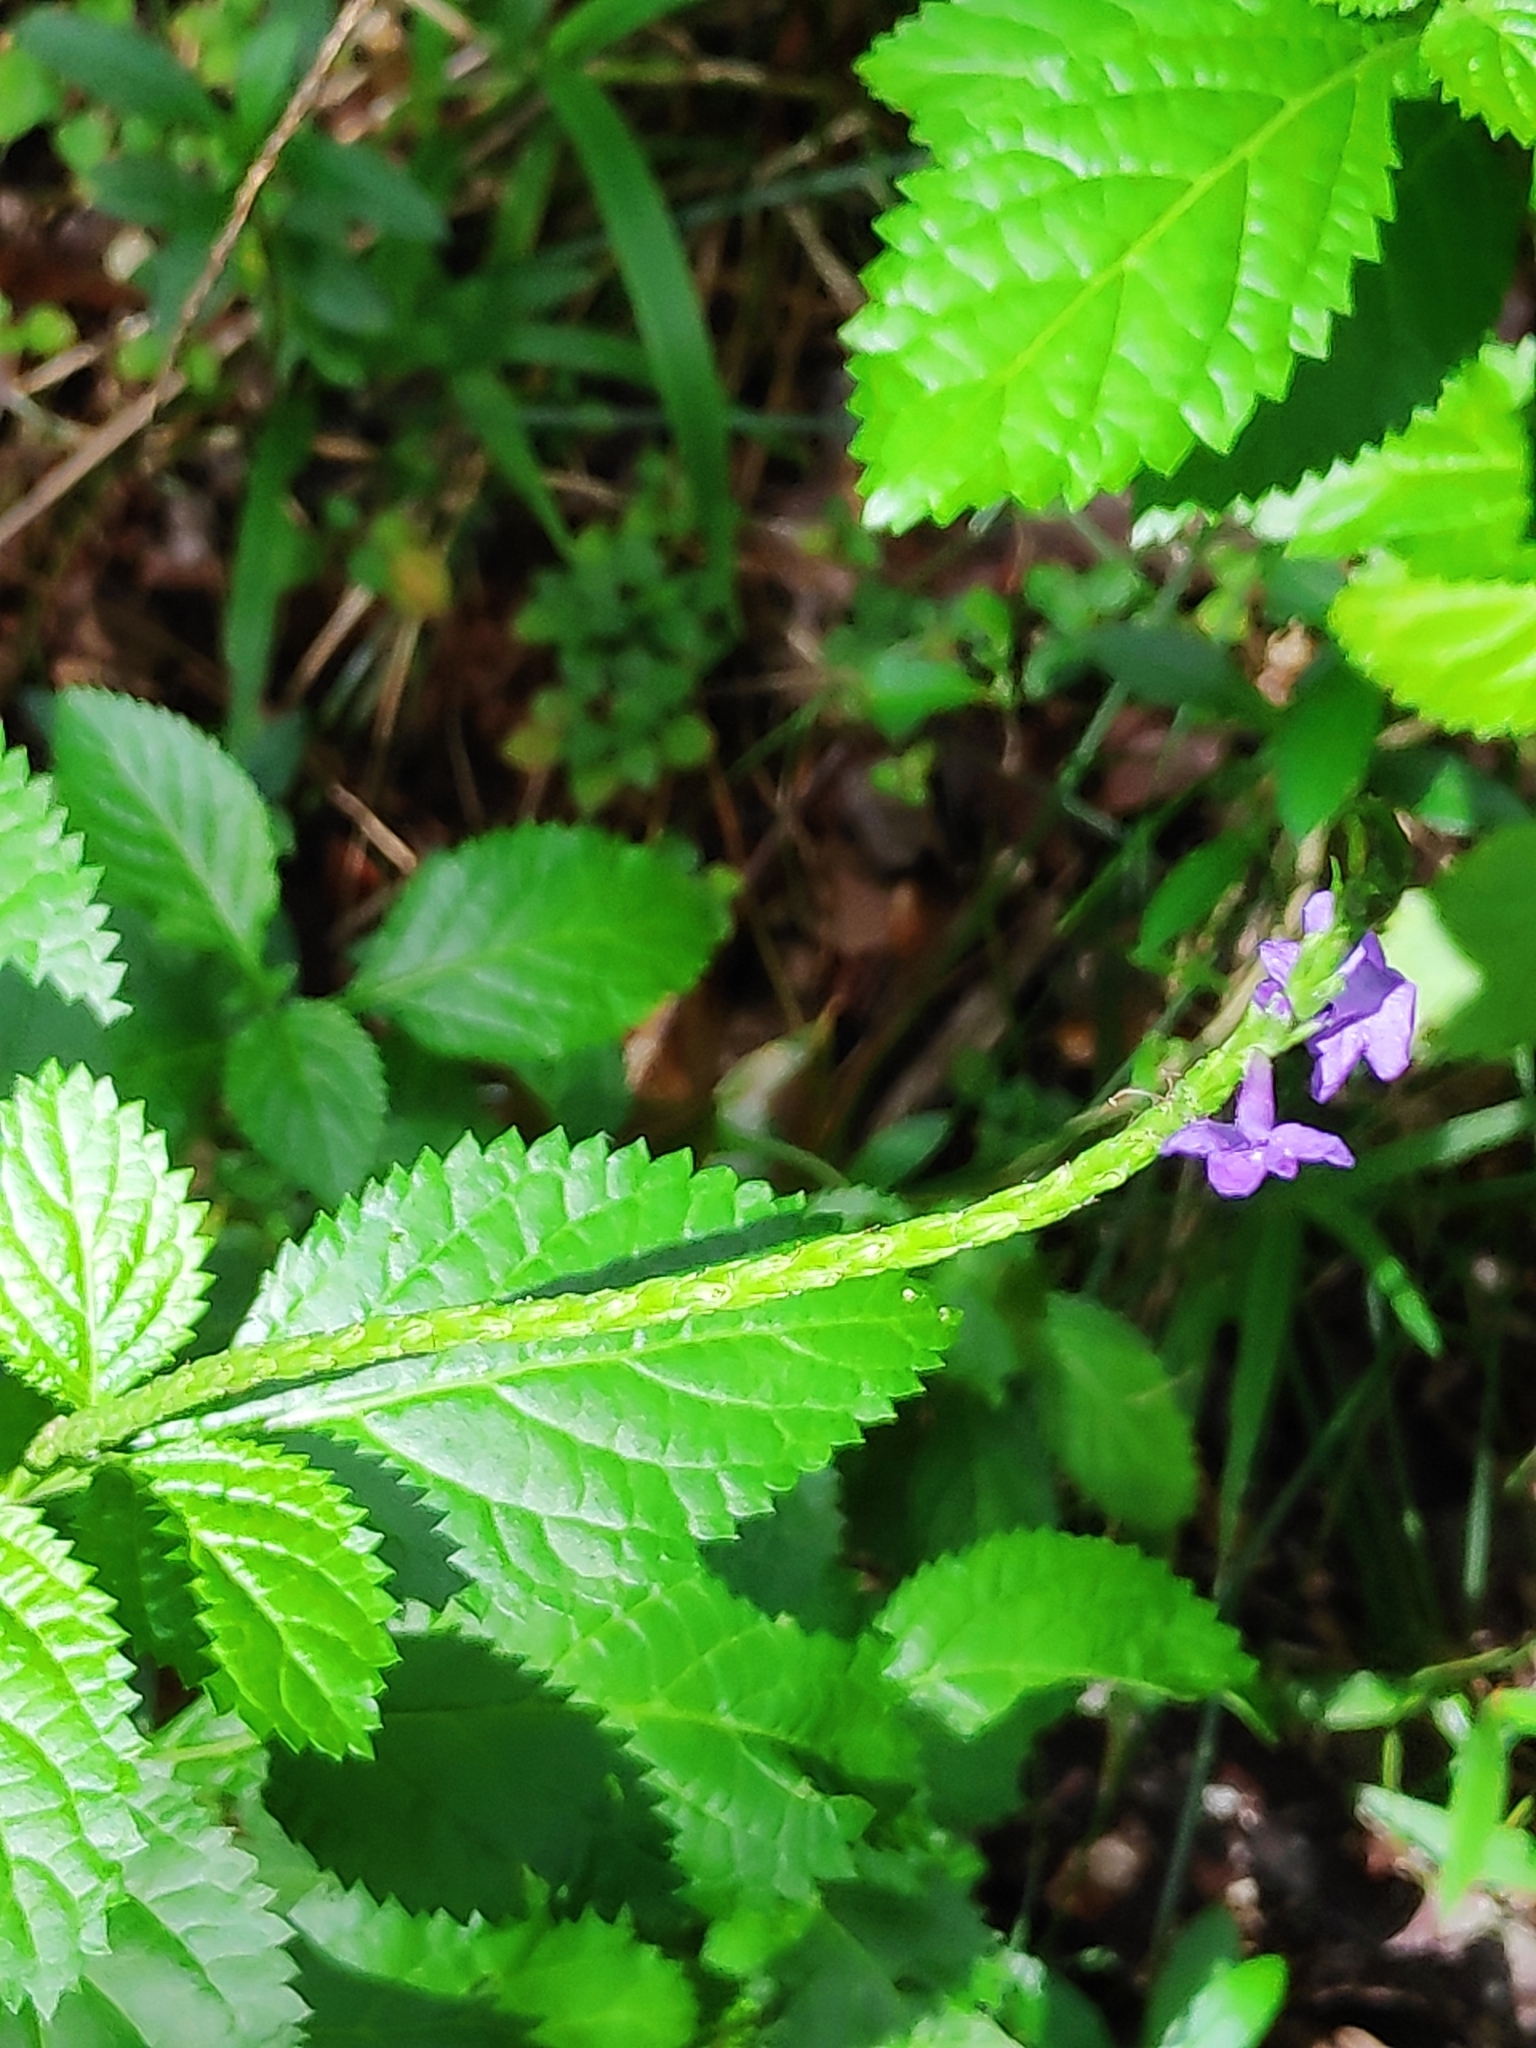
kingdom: Plantae
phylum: Tracheophyta
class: Magnoliopsida
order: Lamiales
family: Verbenaceae
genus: Stachytarpheta
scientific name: Stachytarpheta urticifolia
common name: Nettleleaf velvetberry
